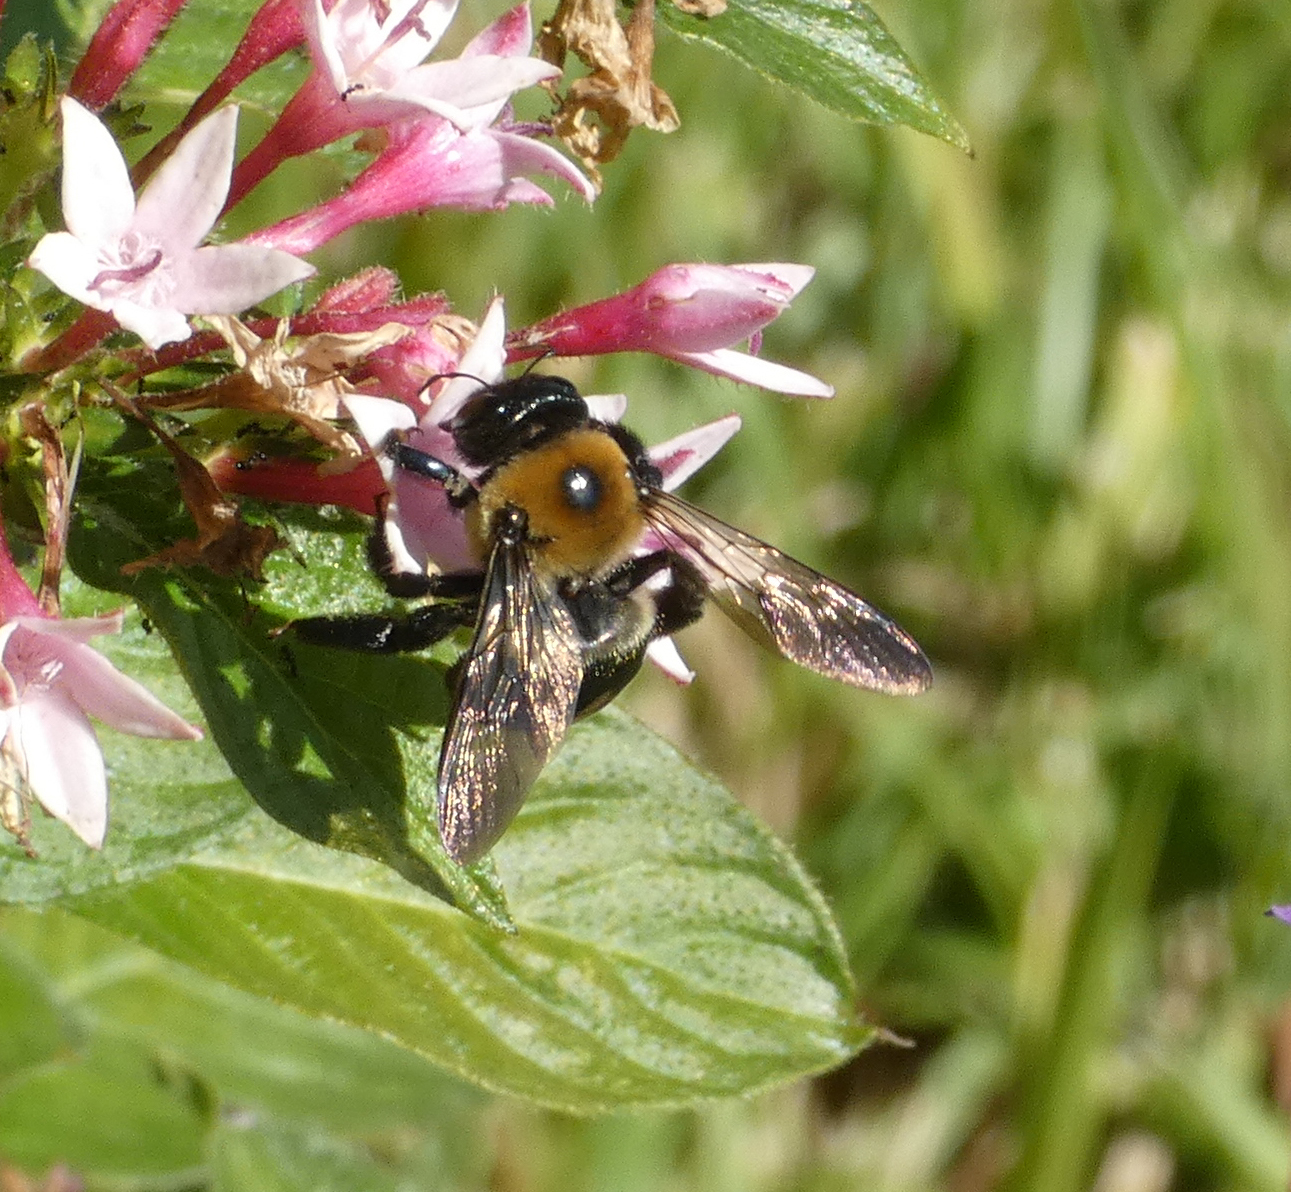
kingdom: Animalia
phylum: Arthropoda
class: Insecta
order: Hymenoptera
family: Apidae
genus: Xylocopa
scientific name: Xylocopa virginica
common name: Carpenter bee
